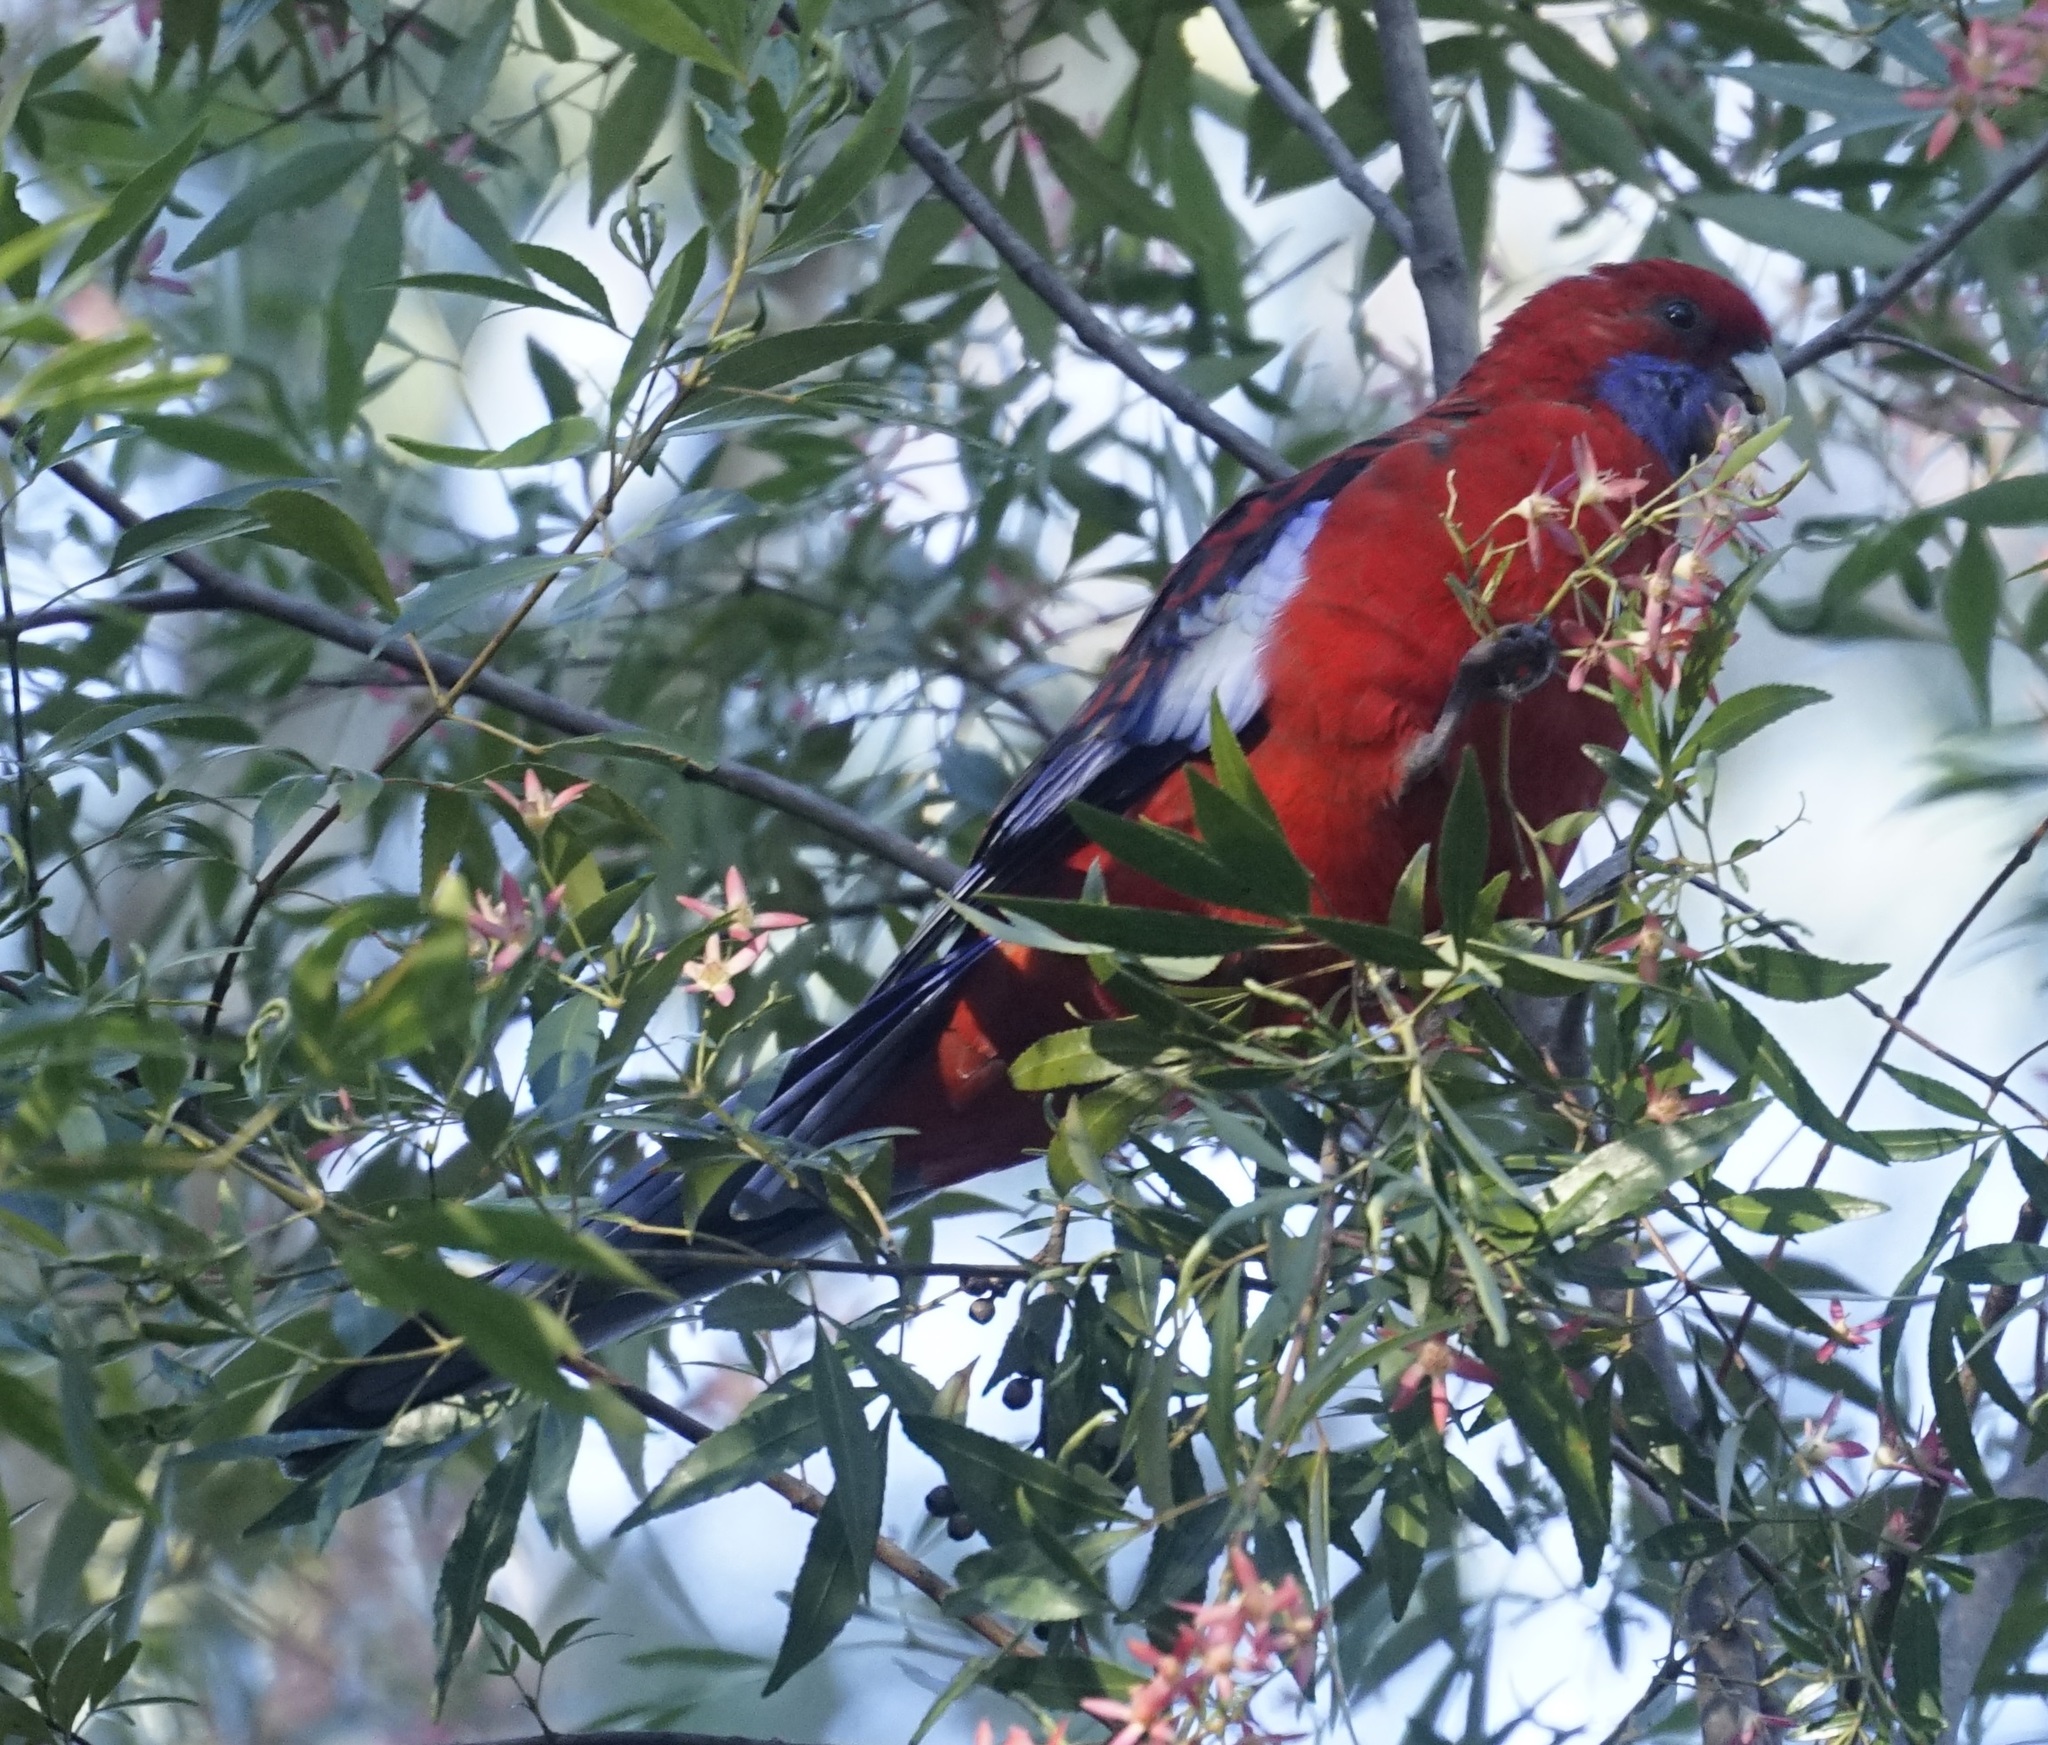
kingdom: Animalia
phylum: Chordata
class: Aves
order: Psittaciformes
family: Psittacidae
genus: Platycercus
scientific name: Platycercus elegans
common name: Crimson rosella
